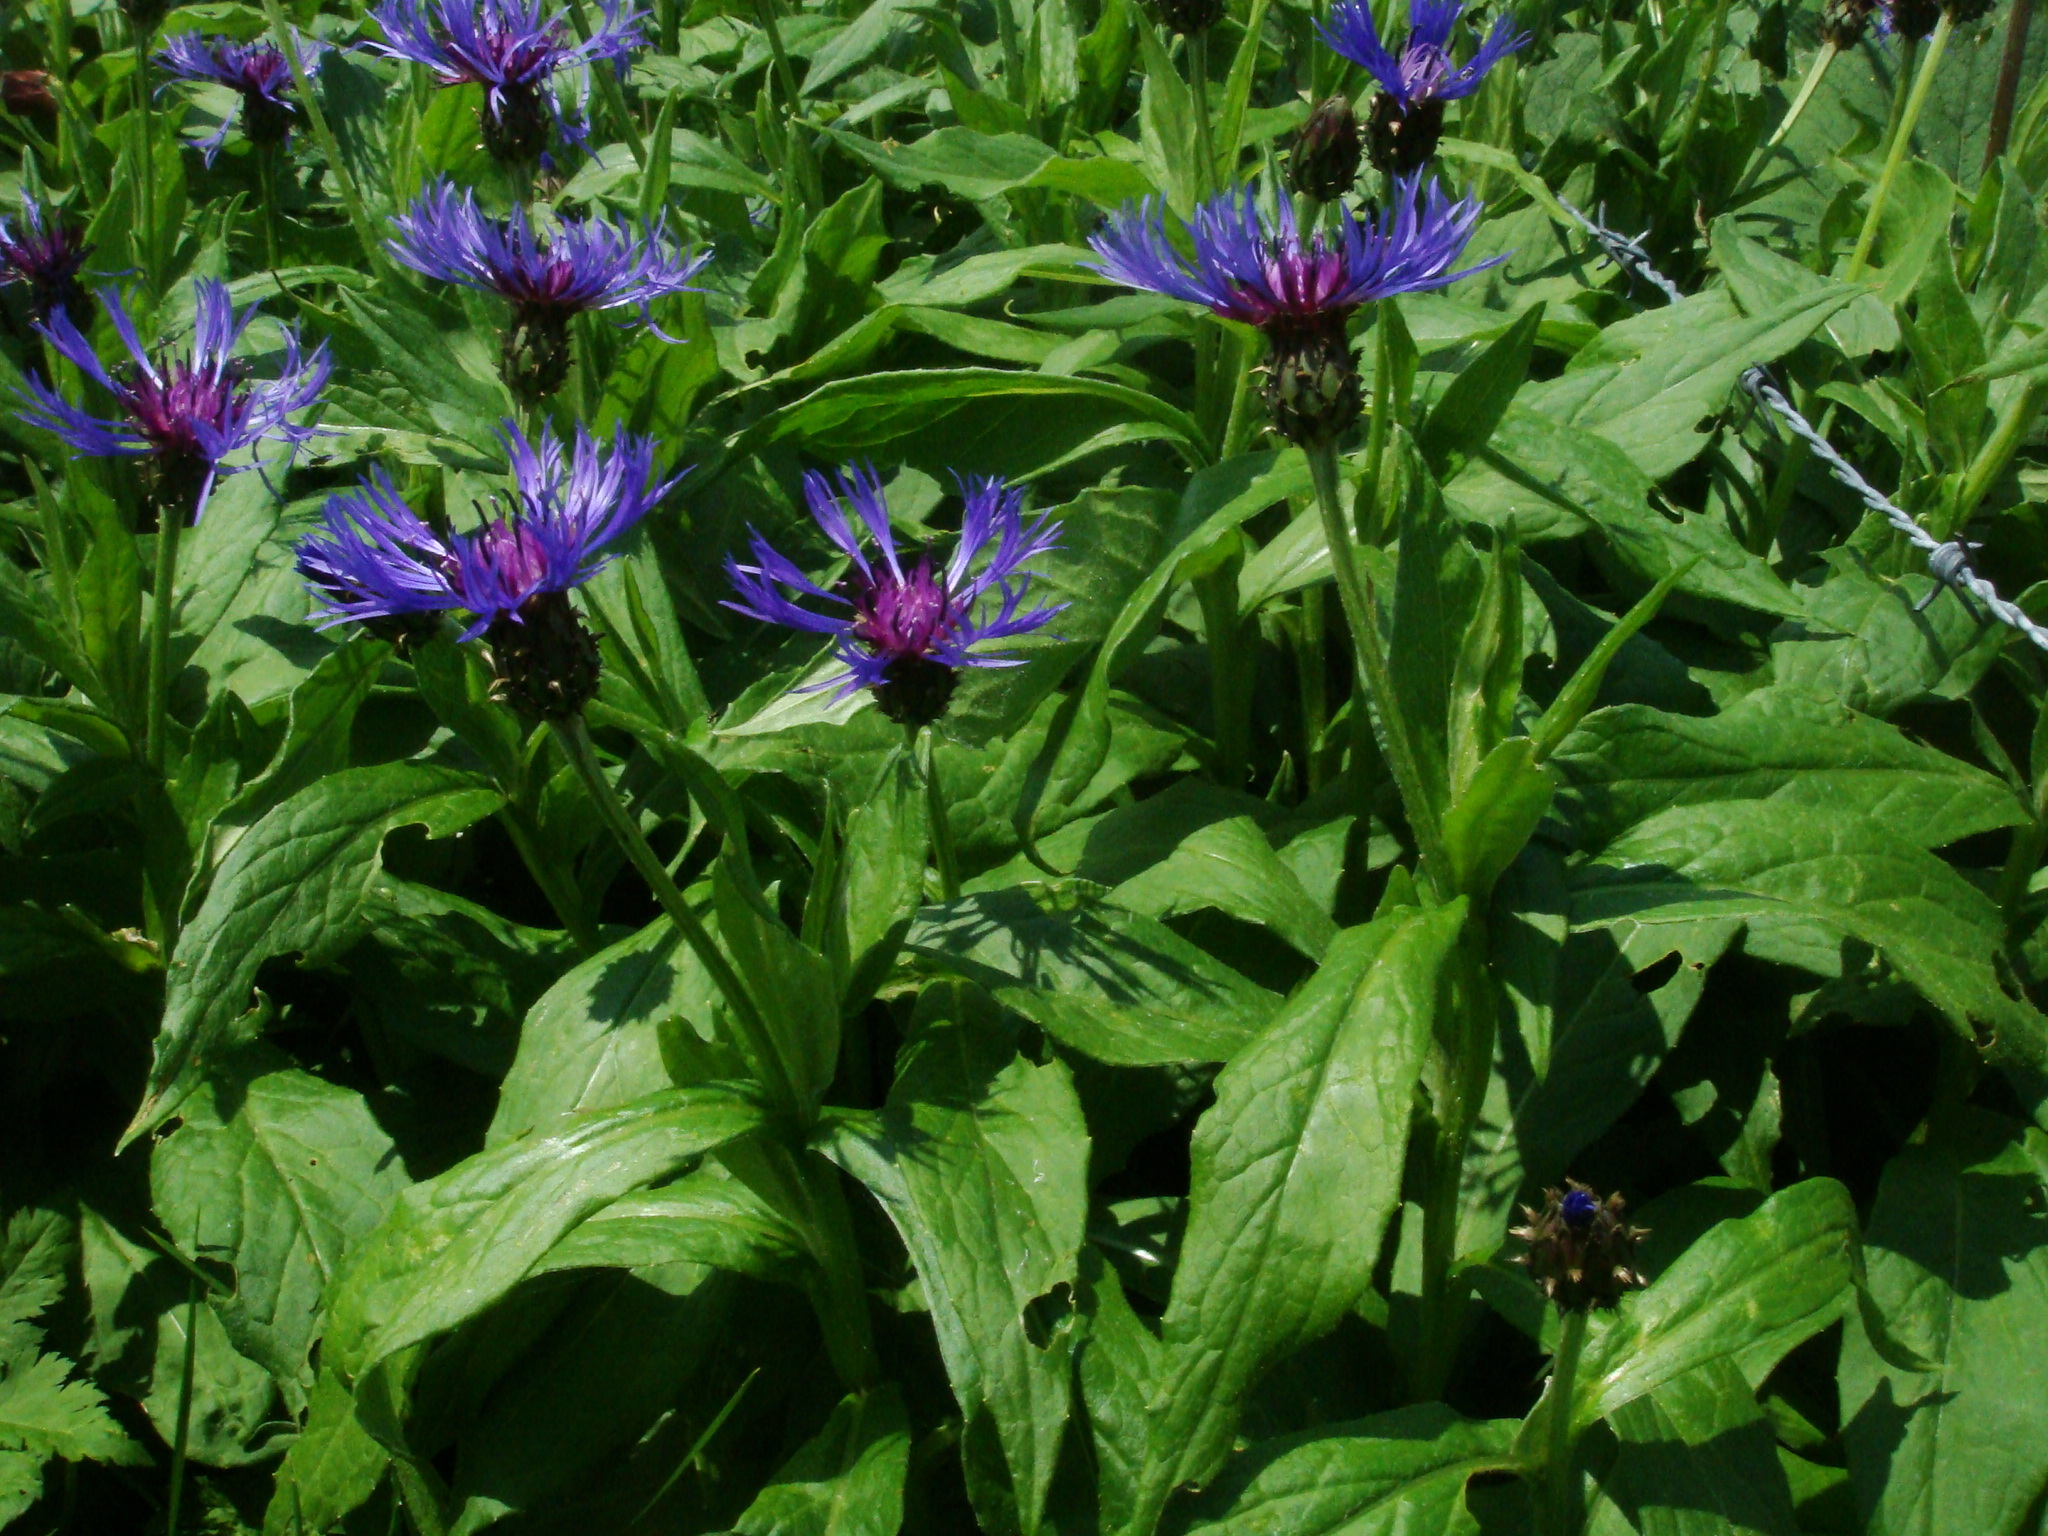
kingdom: Plantae
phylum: Tracheophyta
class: Magnoliopsida
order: Asterales
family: Asteraceae
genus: Centaurea
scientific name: Centaurea montana
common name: Perennial cornflower
